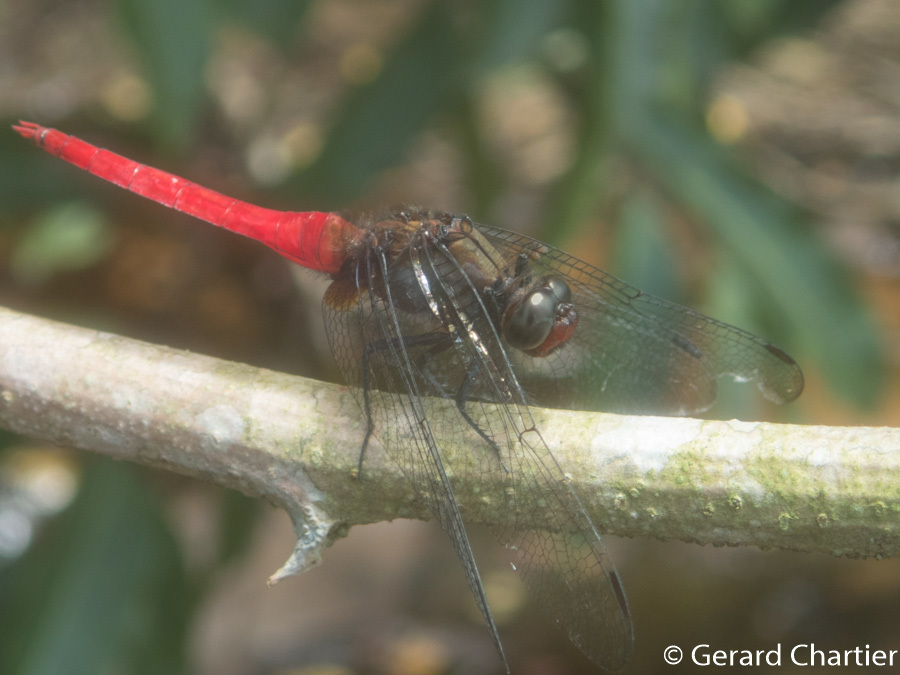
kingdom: Animalia
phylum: Arthropoda
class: Insecta
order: Odonata
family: Libellulidae
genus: Orthetrum
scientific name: Orthetrum chrysis
